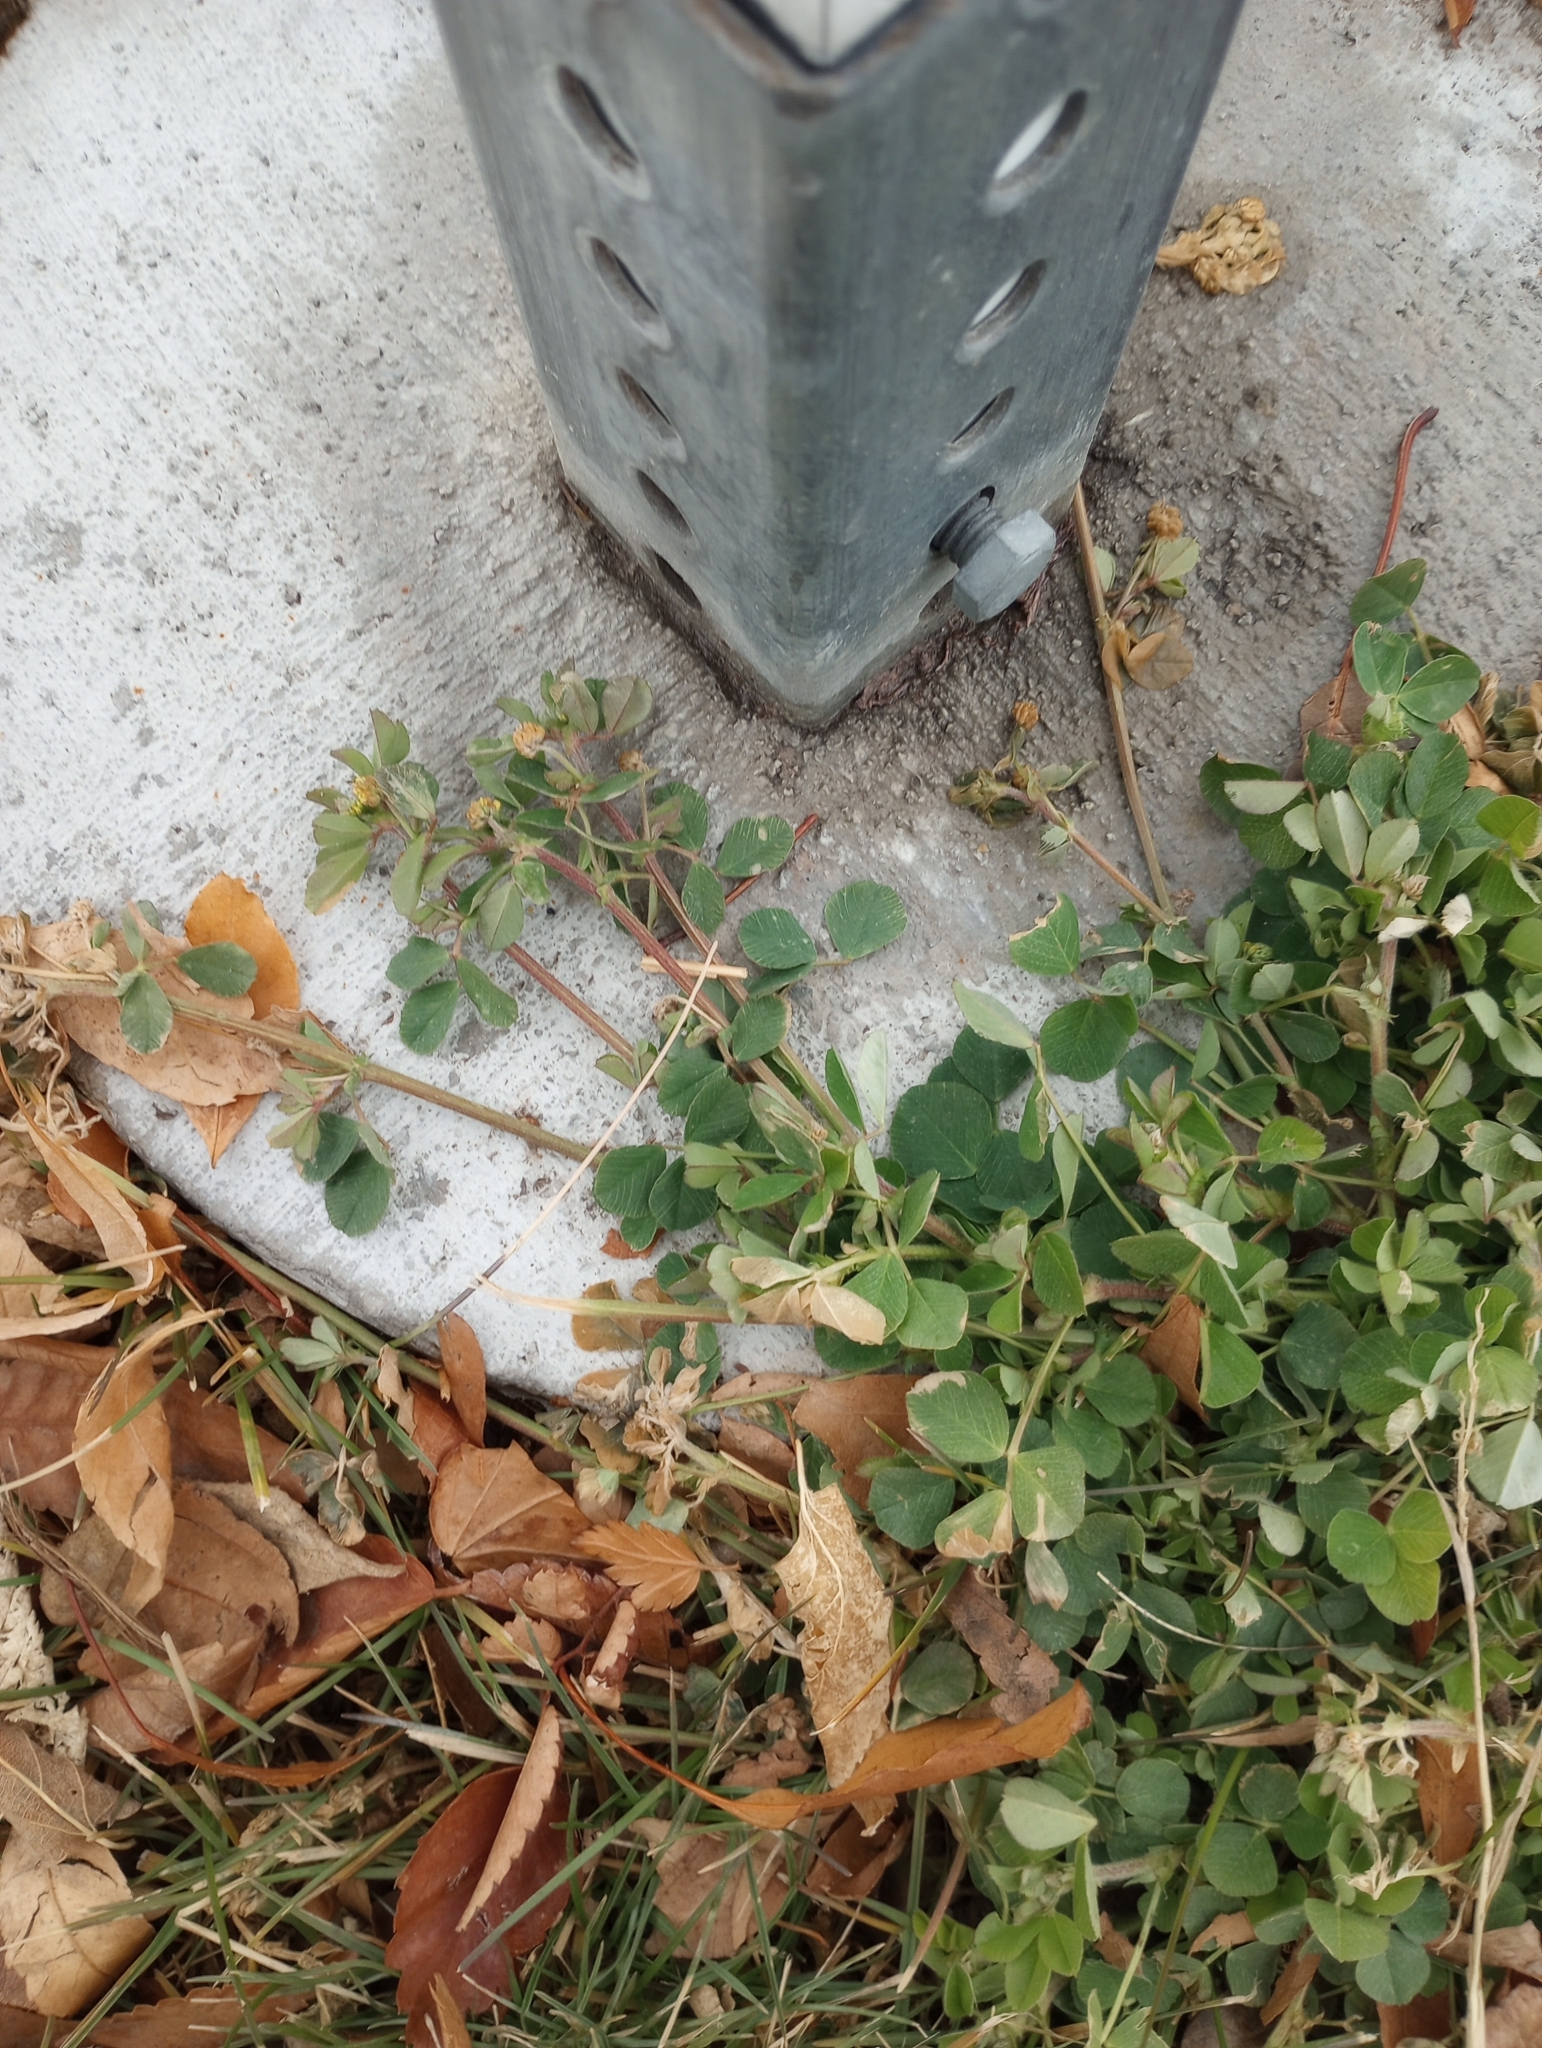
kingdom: Plantae
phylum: Tracheophyta
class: Magnoliopsida
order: Fabales
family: Fabaceae
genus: Medicago
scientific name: Medicago lupulina
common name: Black medick
